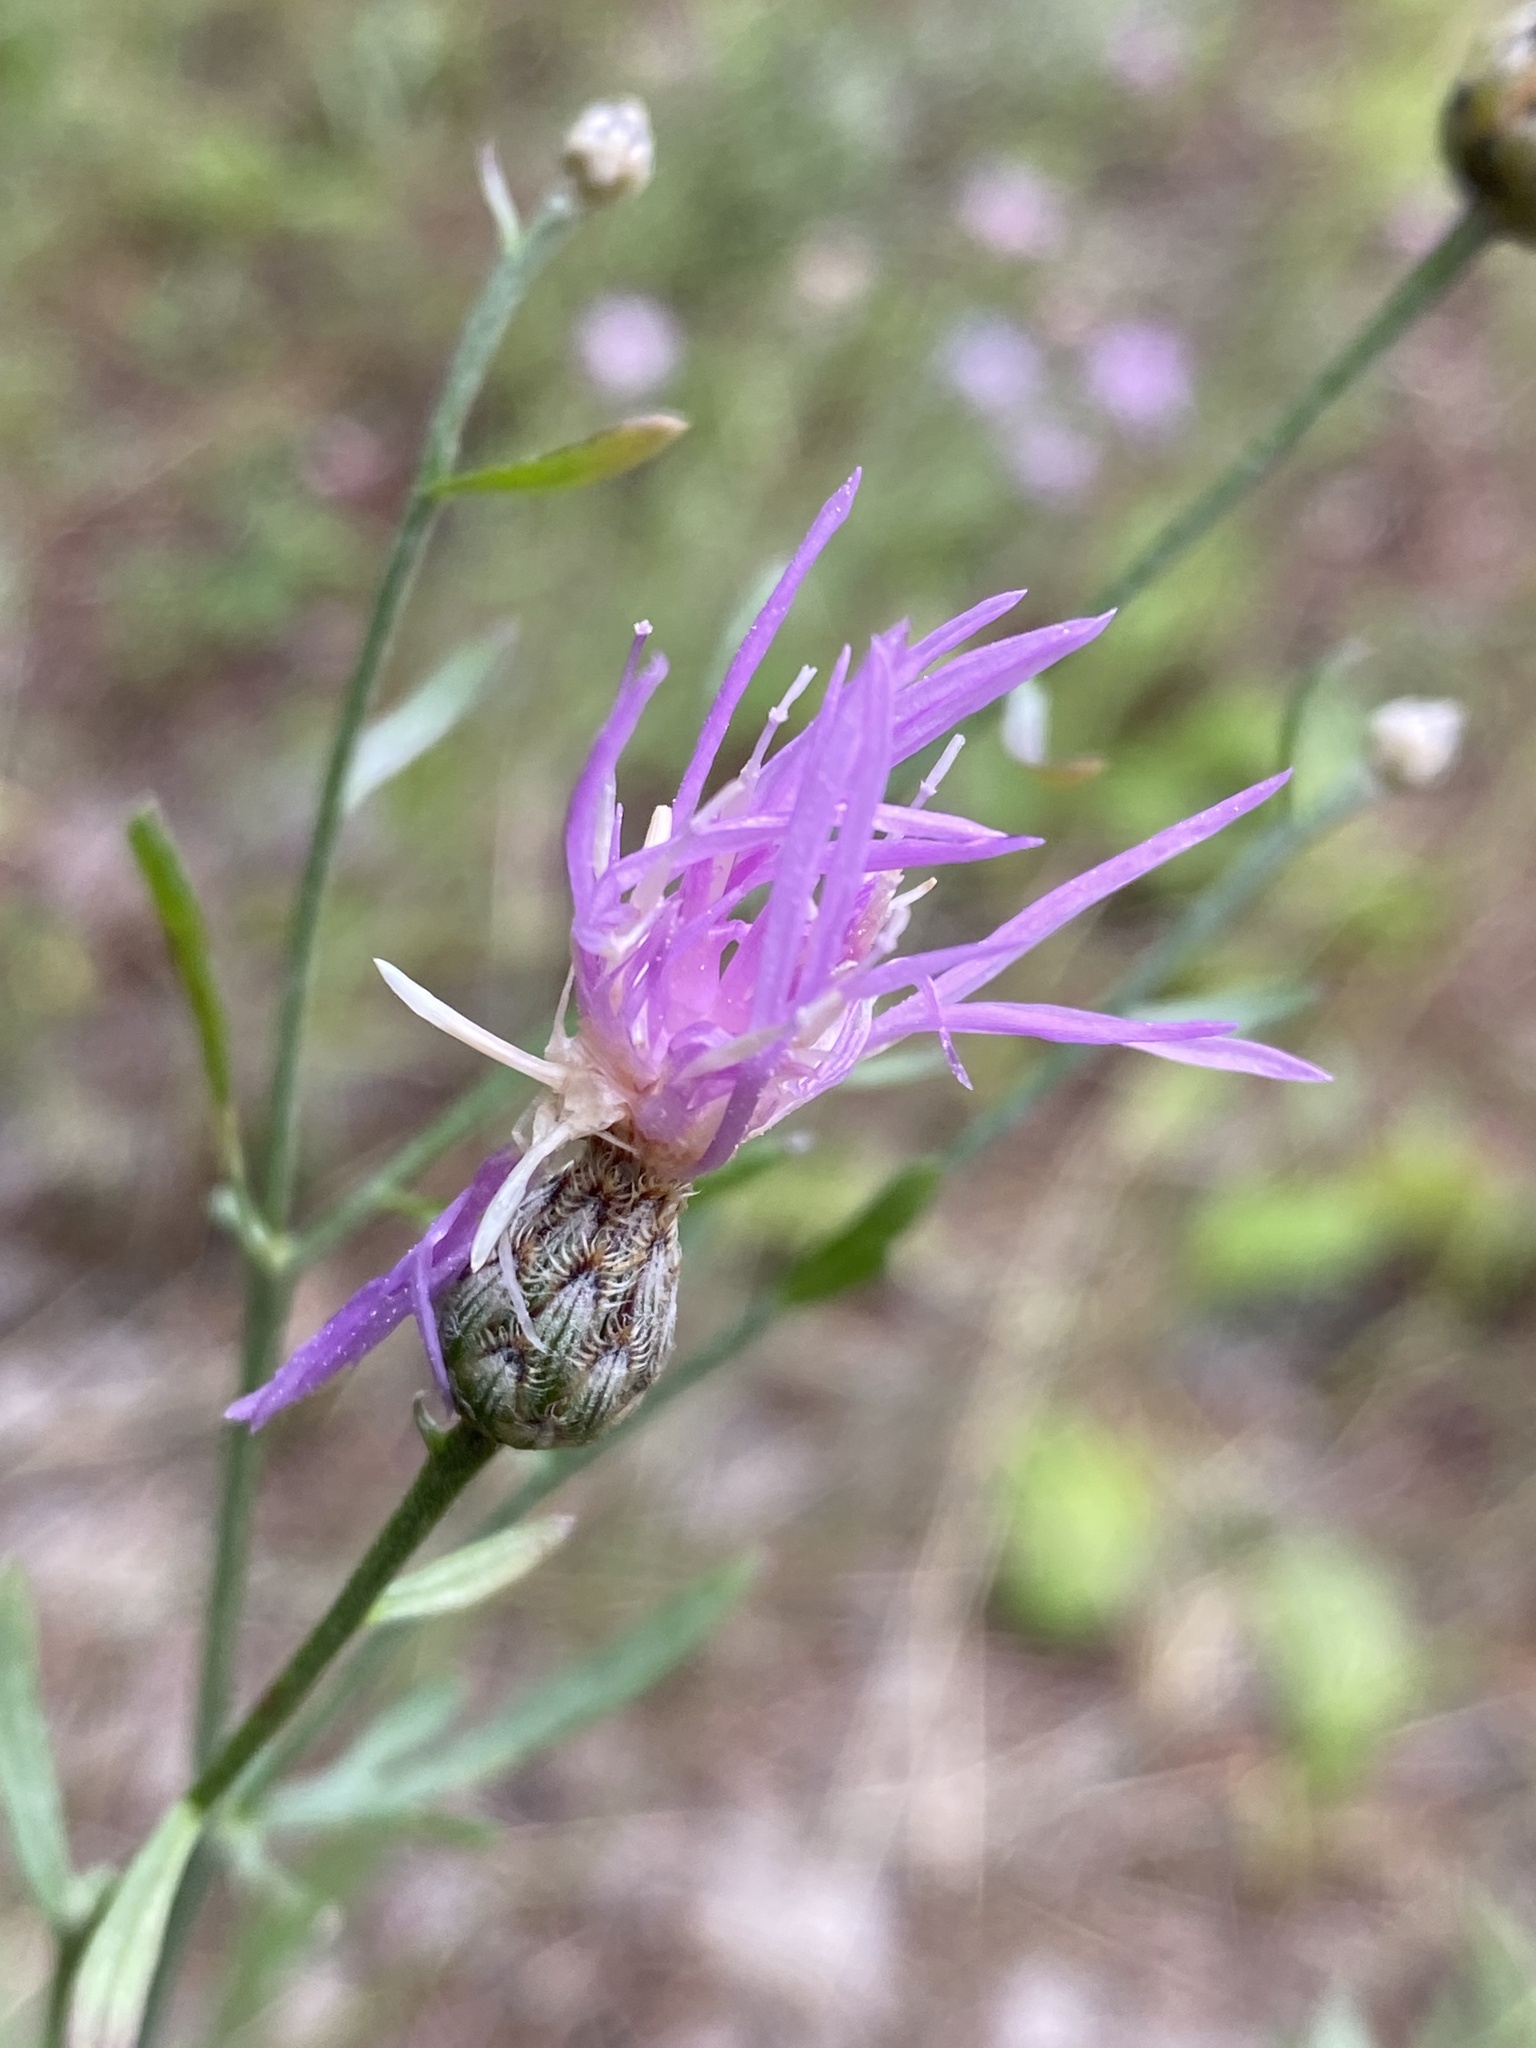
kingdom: Plantae
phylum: Tracheophyta
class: Magnoliopsida
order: Asterales
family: Asteraceae
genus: Centaurea
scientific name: Centaurea stoebe
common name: Spotted knapweed
